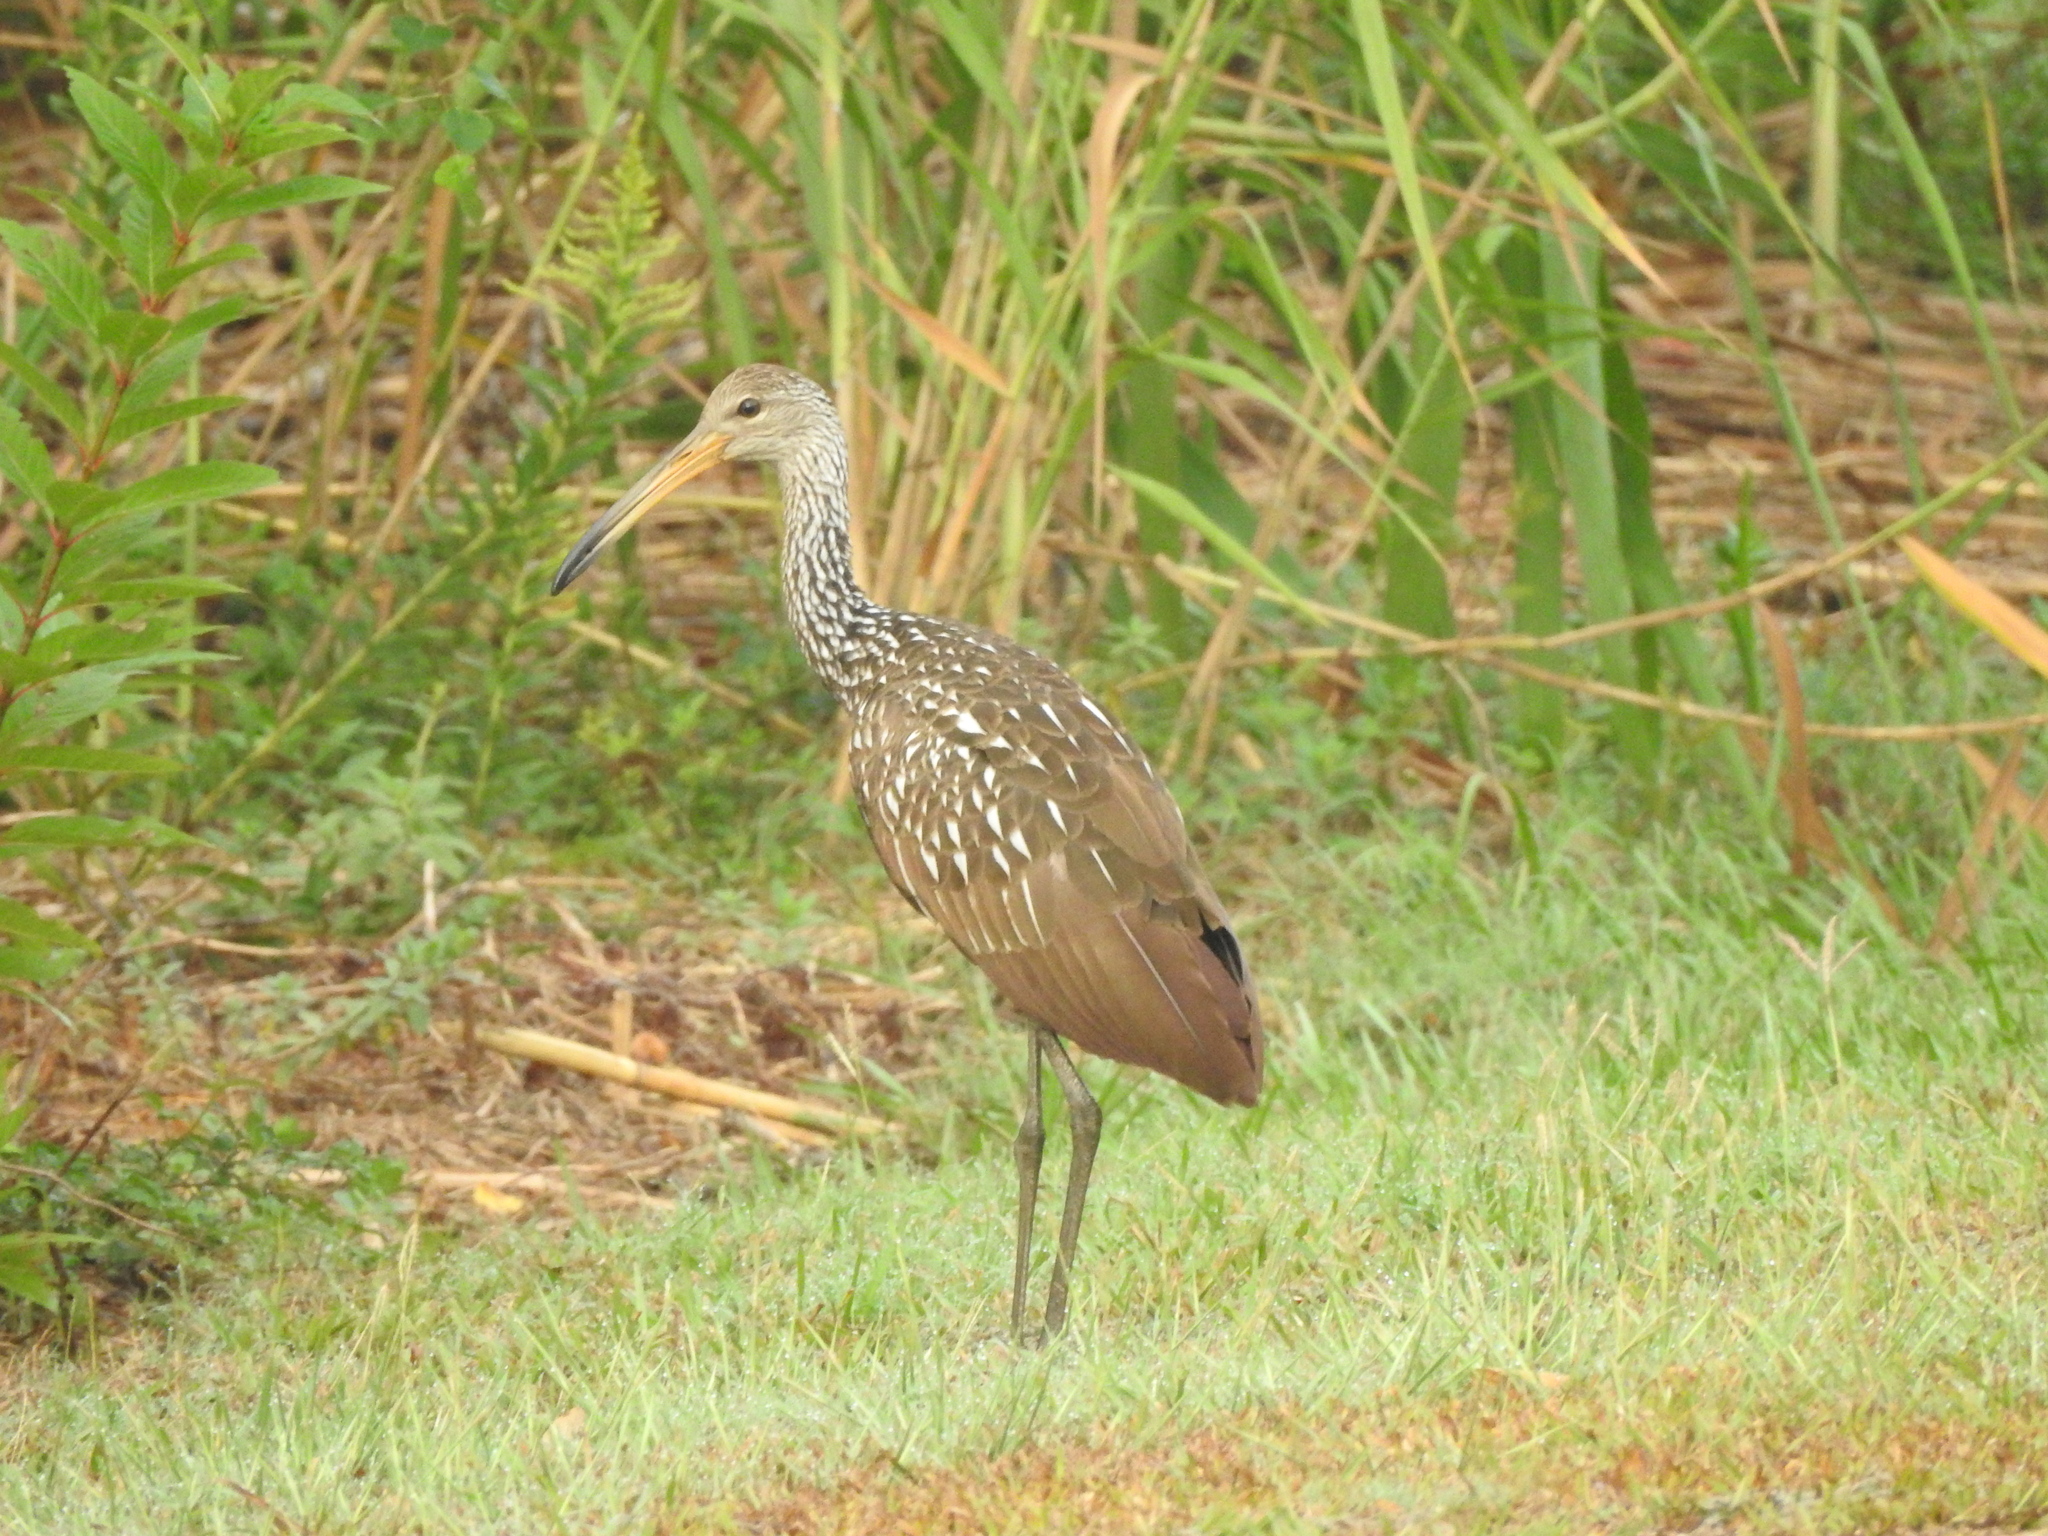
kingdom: Animalia
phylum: Chordata
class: Aves
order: Gruiformes
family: Aramidae
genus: Aramus
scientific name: Aramus guarauna
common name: Limpkin
